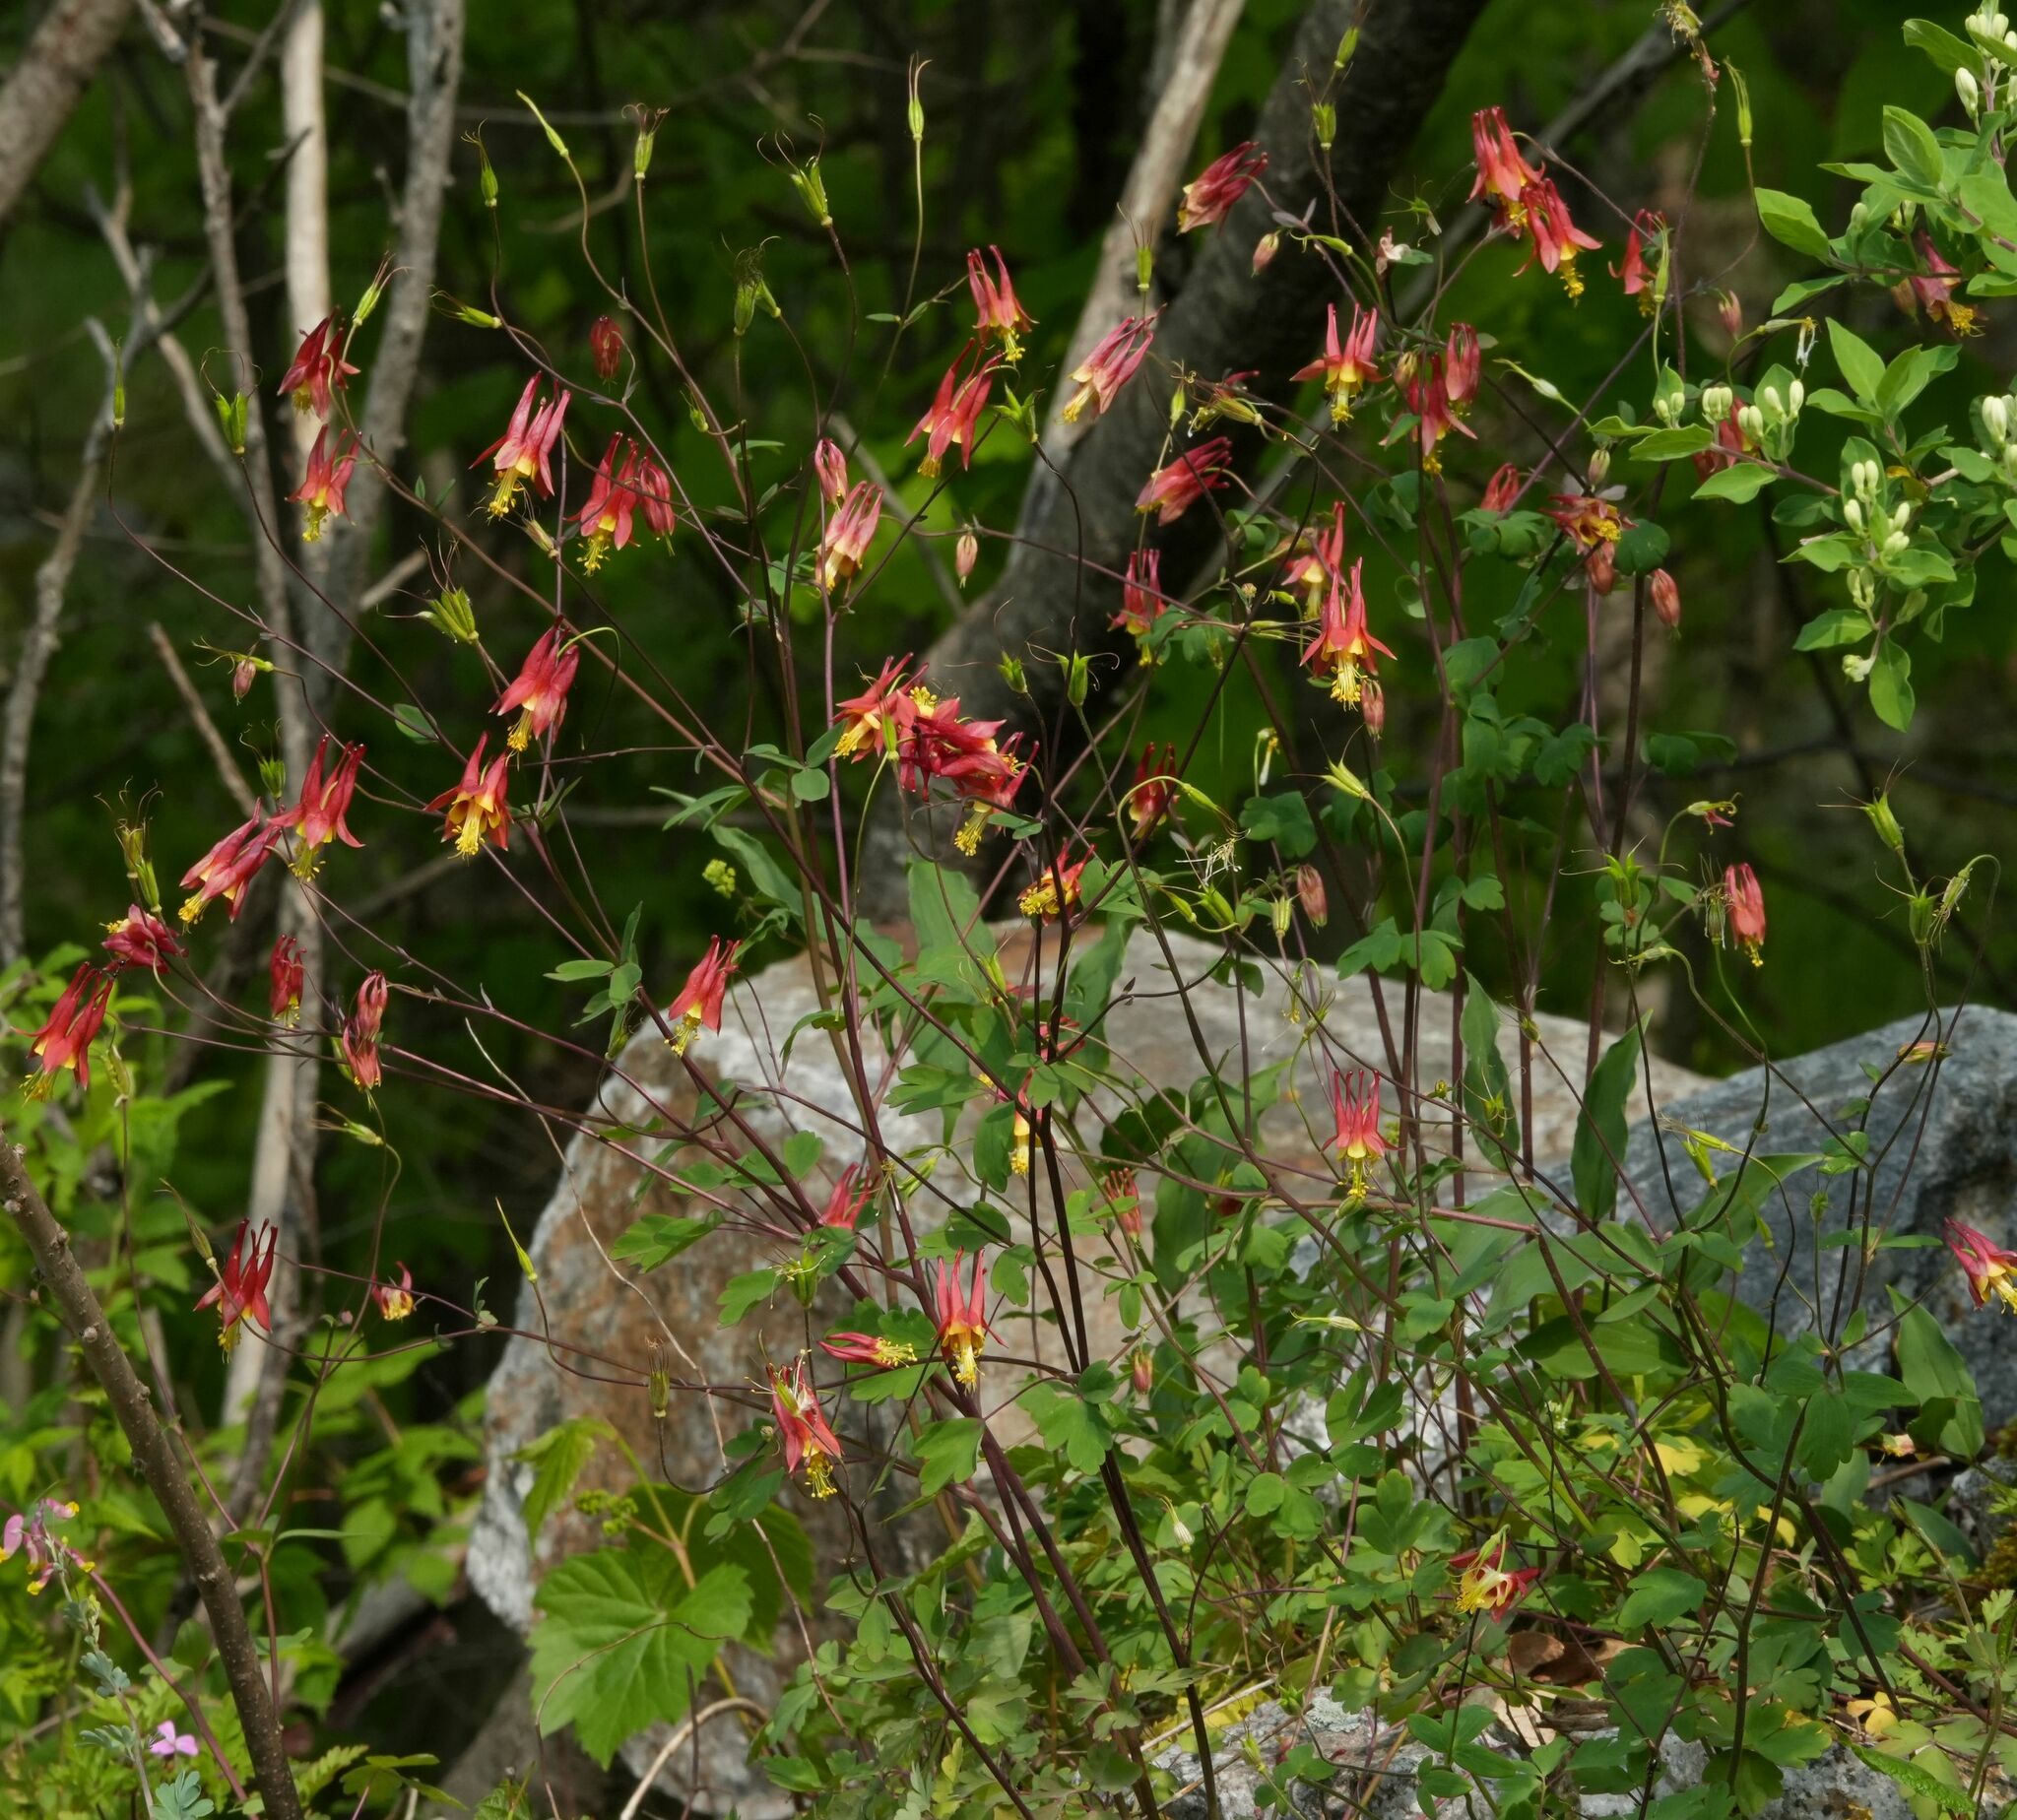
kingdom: Plantae
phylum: Tracheophyta
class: Magnoliopsida
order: Ranunculales
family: Ranunculaceae
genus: Aquilegia
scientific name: Aquilegia canadensis
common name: American columbine
